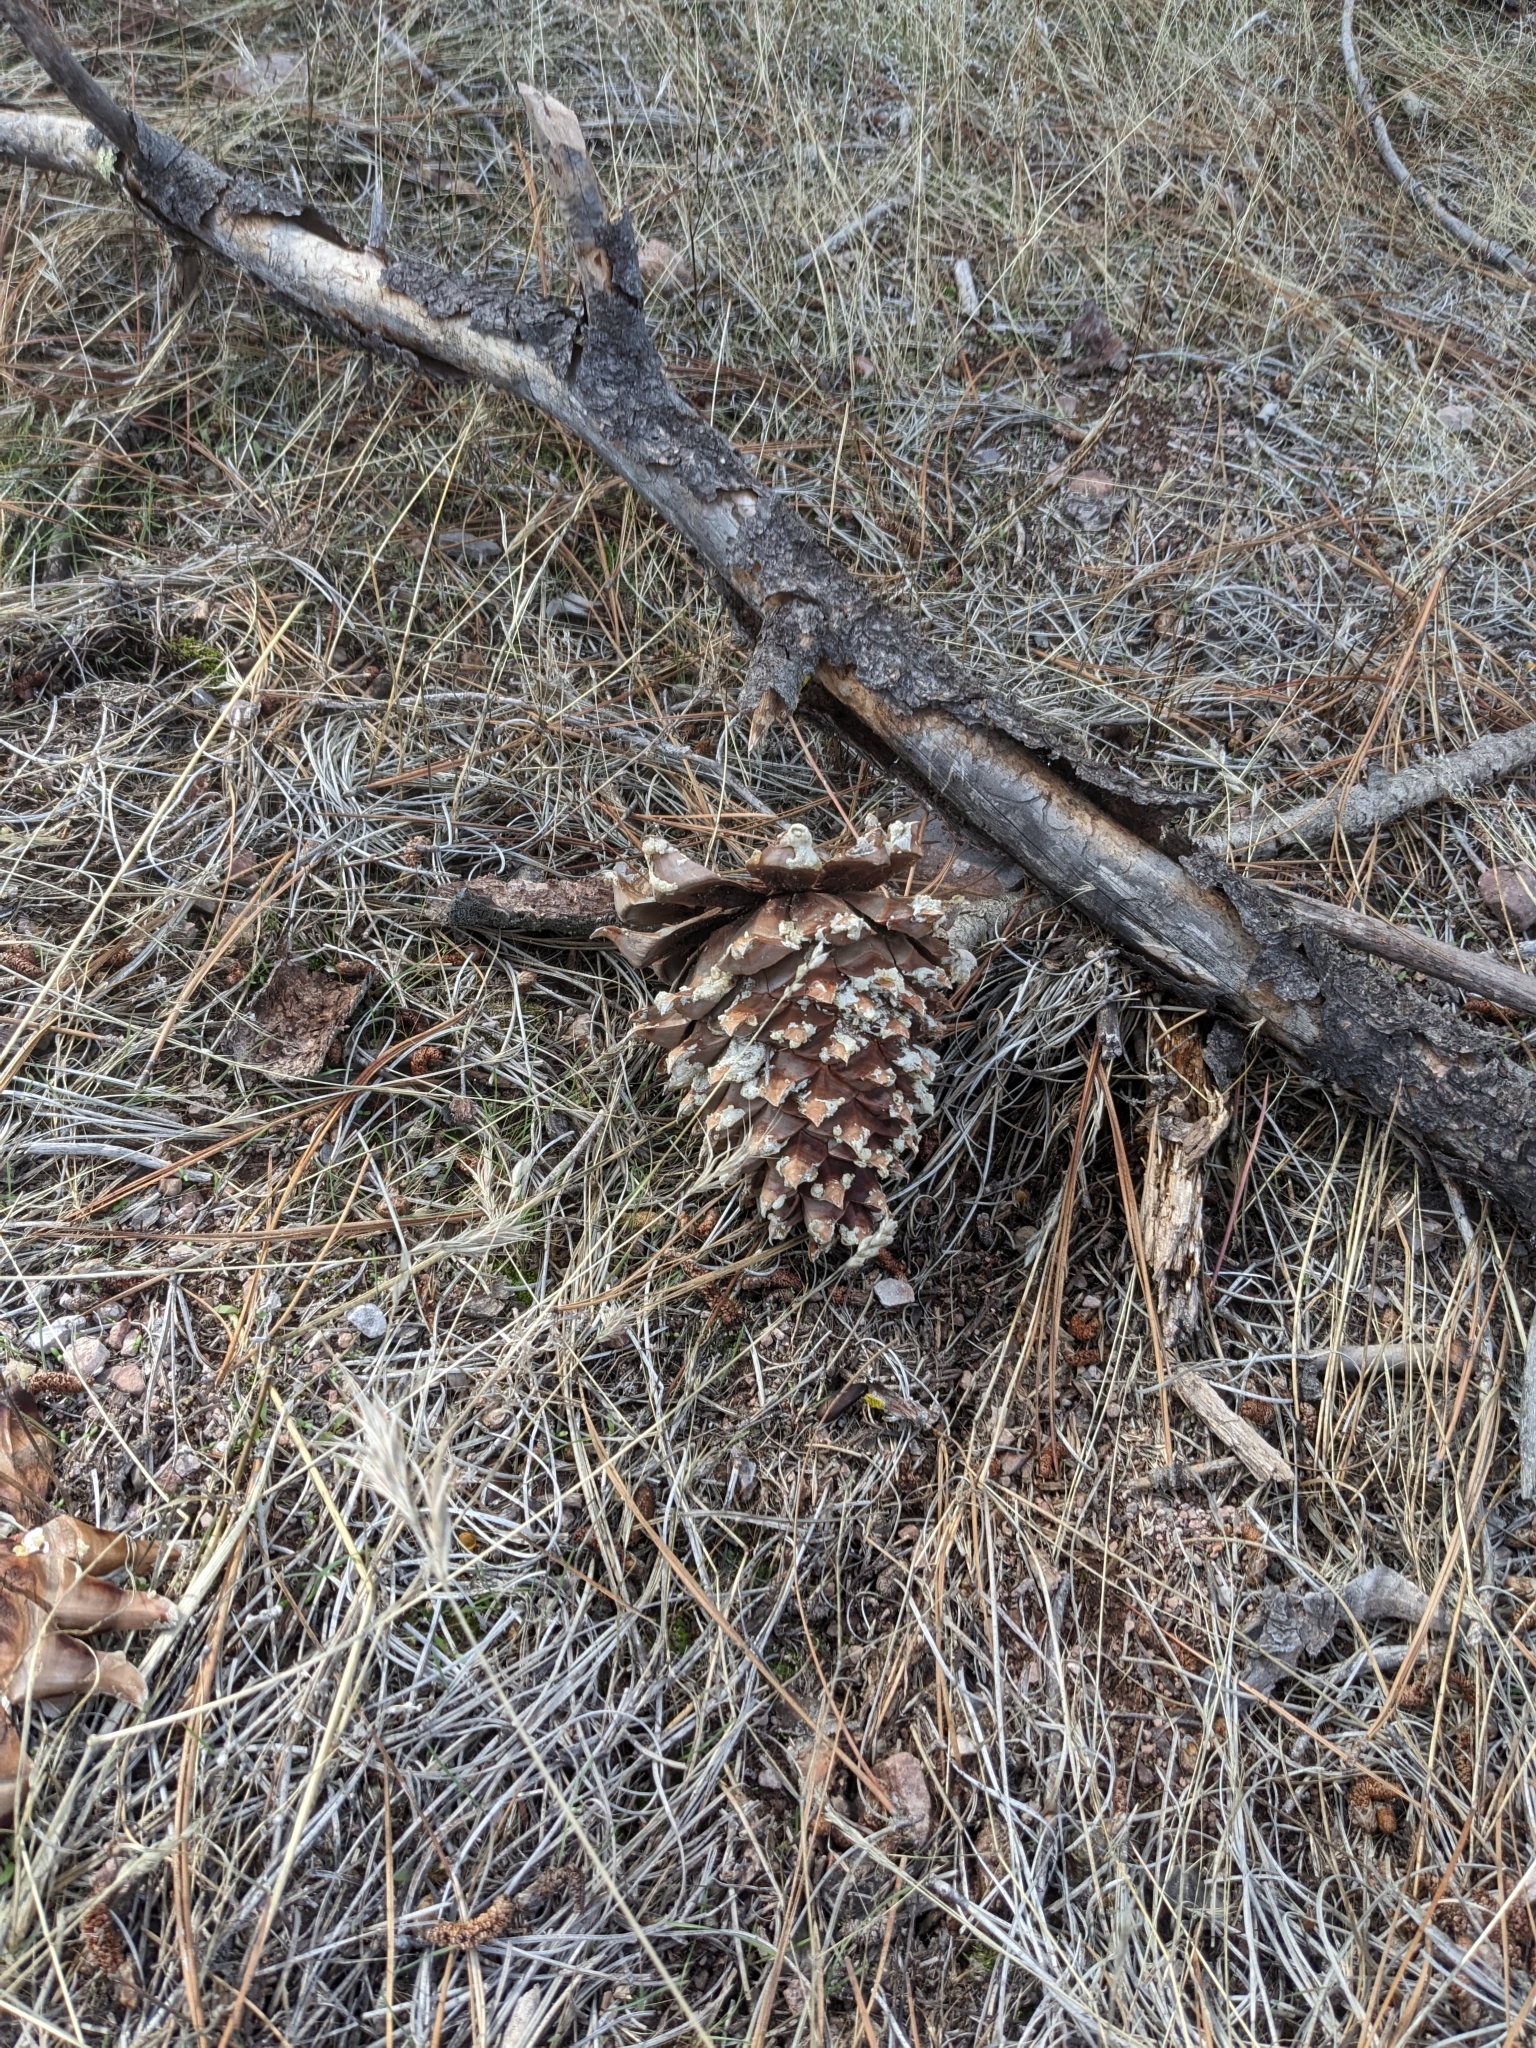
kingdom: Plantae
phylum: Tracheophyta
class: Pinopsida
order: Pinales
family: Pinaceae
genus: Pinus
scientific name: Pinus sabiniana
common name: Bull pine
